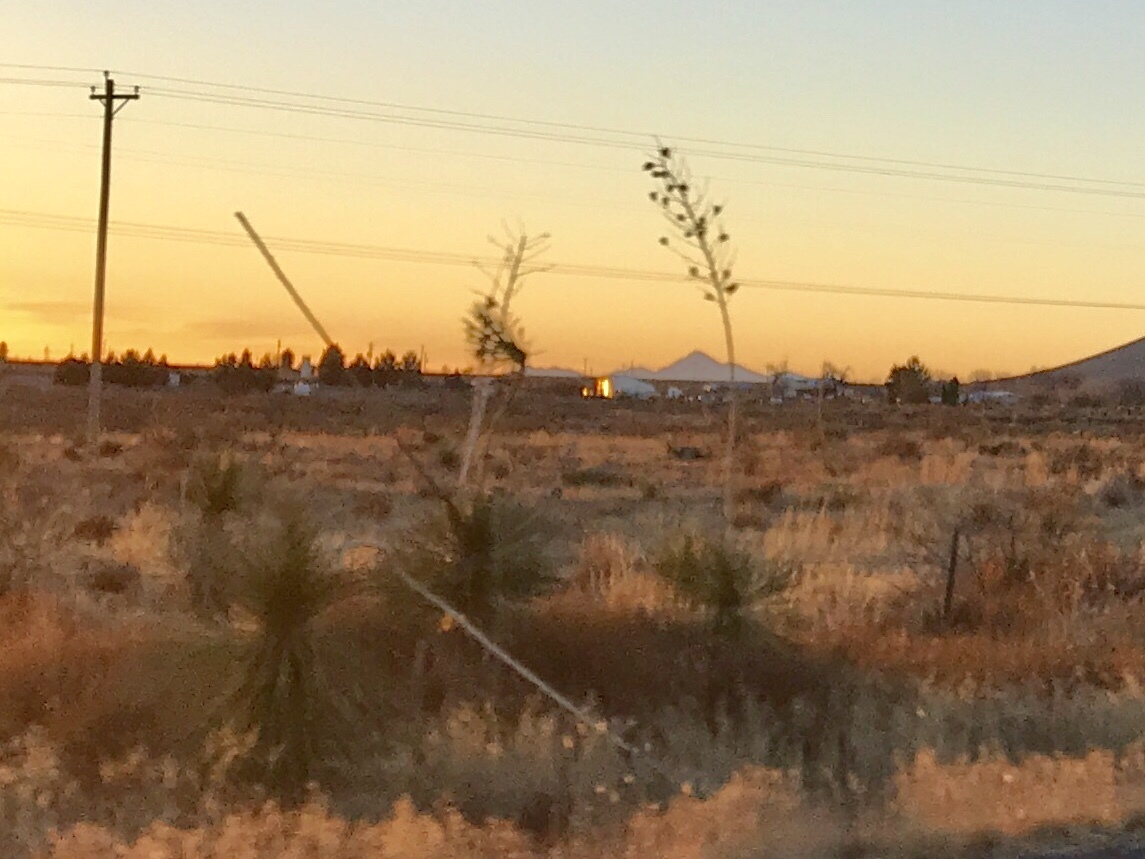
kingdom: Plantae
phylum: Tracheophyta
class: Liliopsida
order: Asparagales
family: Asparagaceae
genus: Yucca
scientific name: Yucca elata
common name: Palmella
